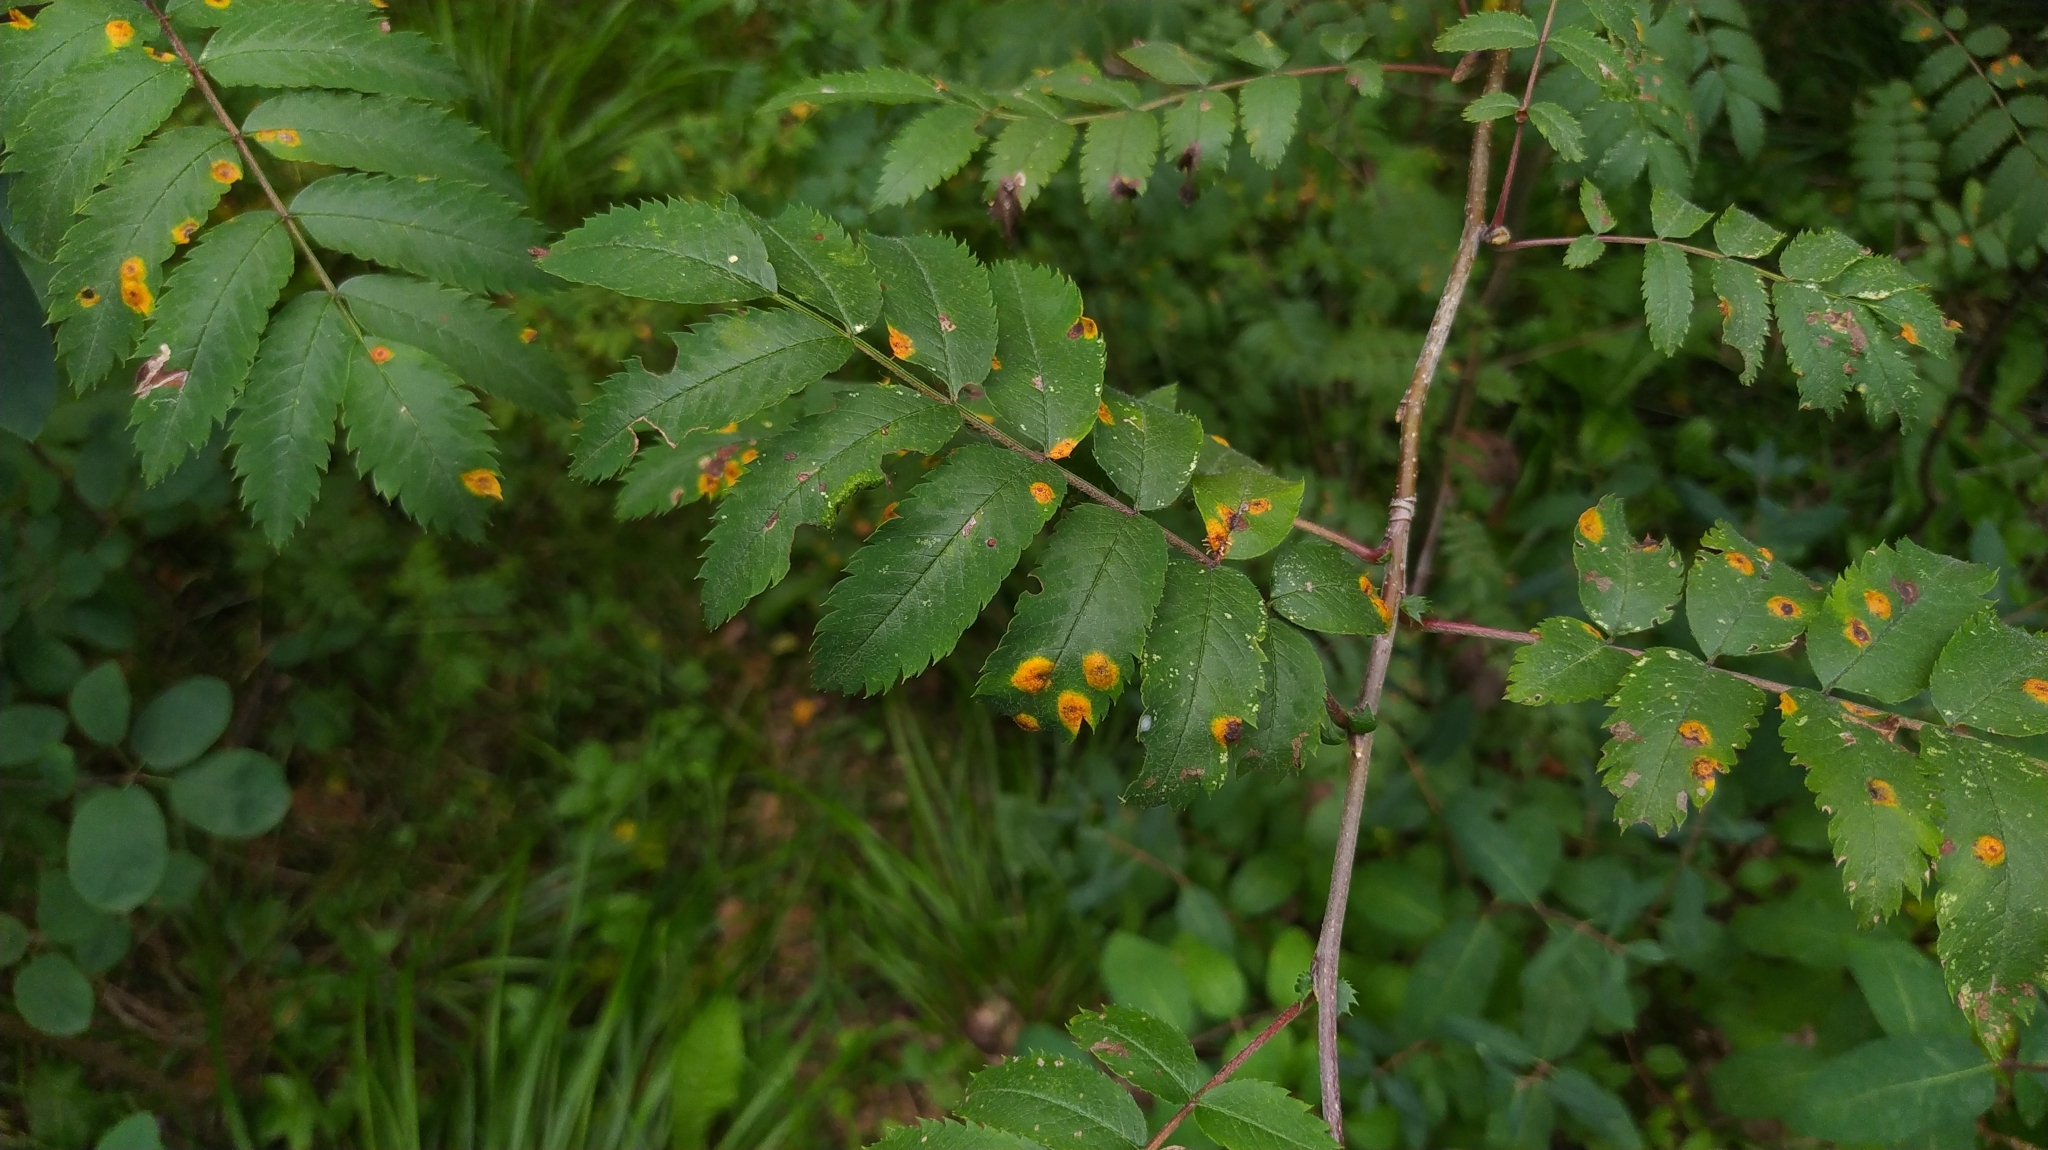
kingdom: Fungi
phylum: Basidiomycota
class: Pucciniomycetes
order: Pucciniales
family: Gymnosporangiaceae
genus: Gymnosporangium
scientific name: Gymnosporangium cornutum
